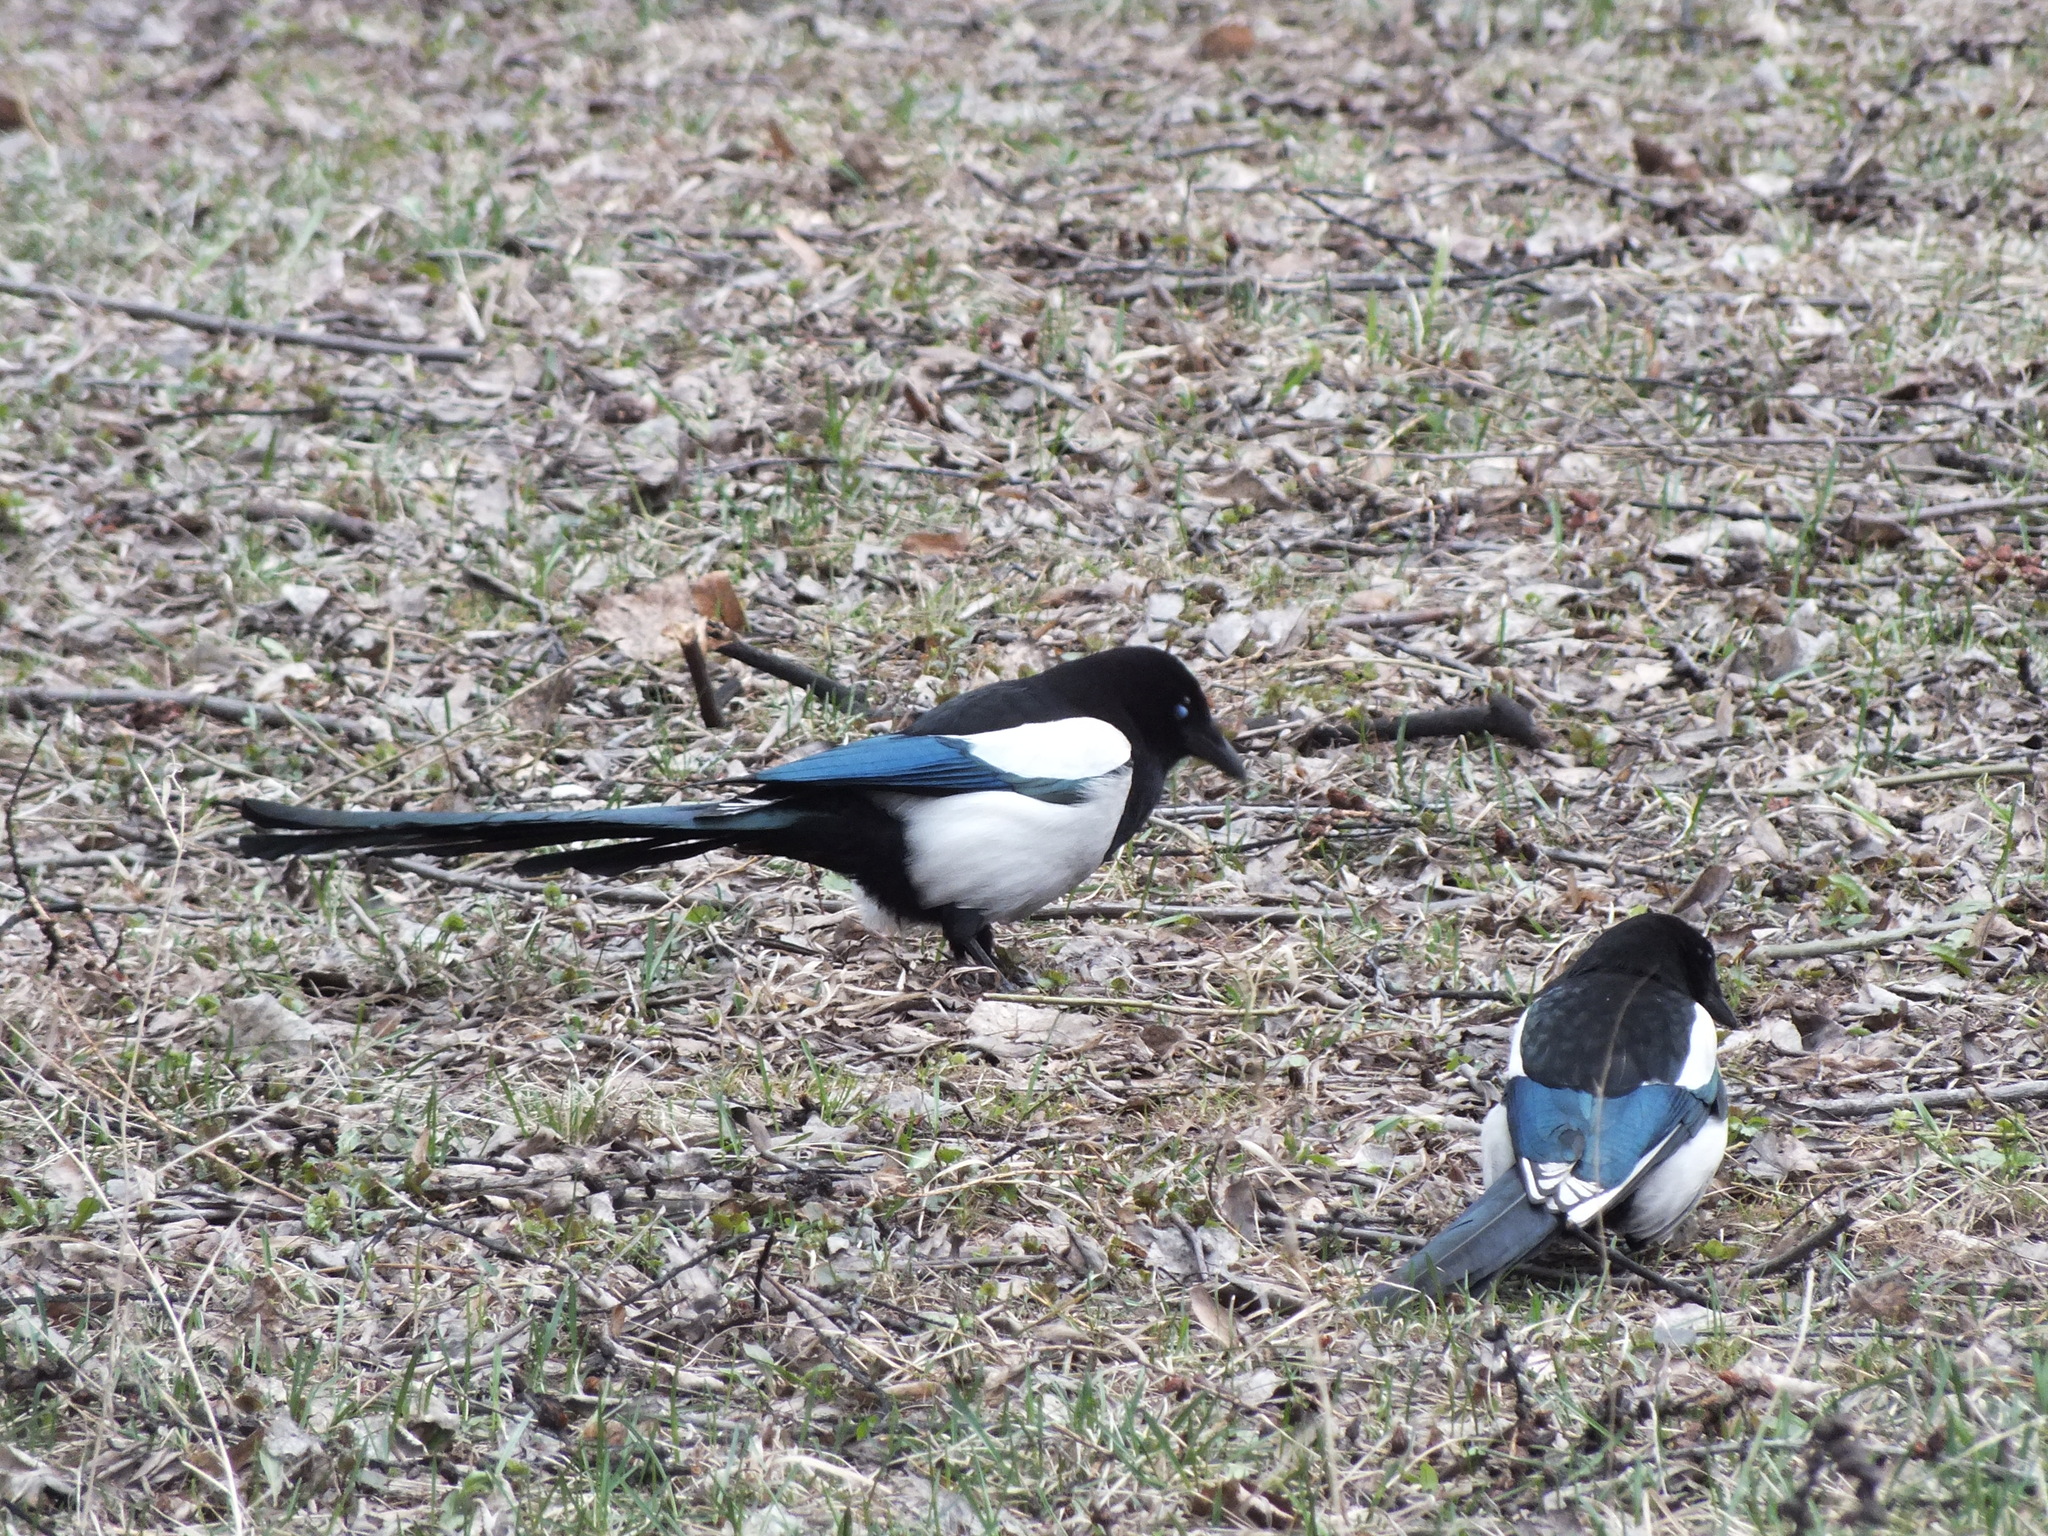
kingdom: Animalia
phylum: Chordata
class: Aves
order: Passeriformes
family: Corvidae
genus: Pica
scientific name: Pica pica
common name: Eurasian magpie
